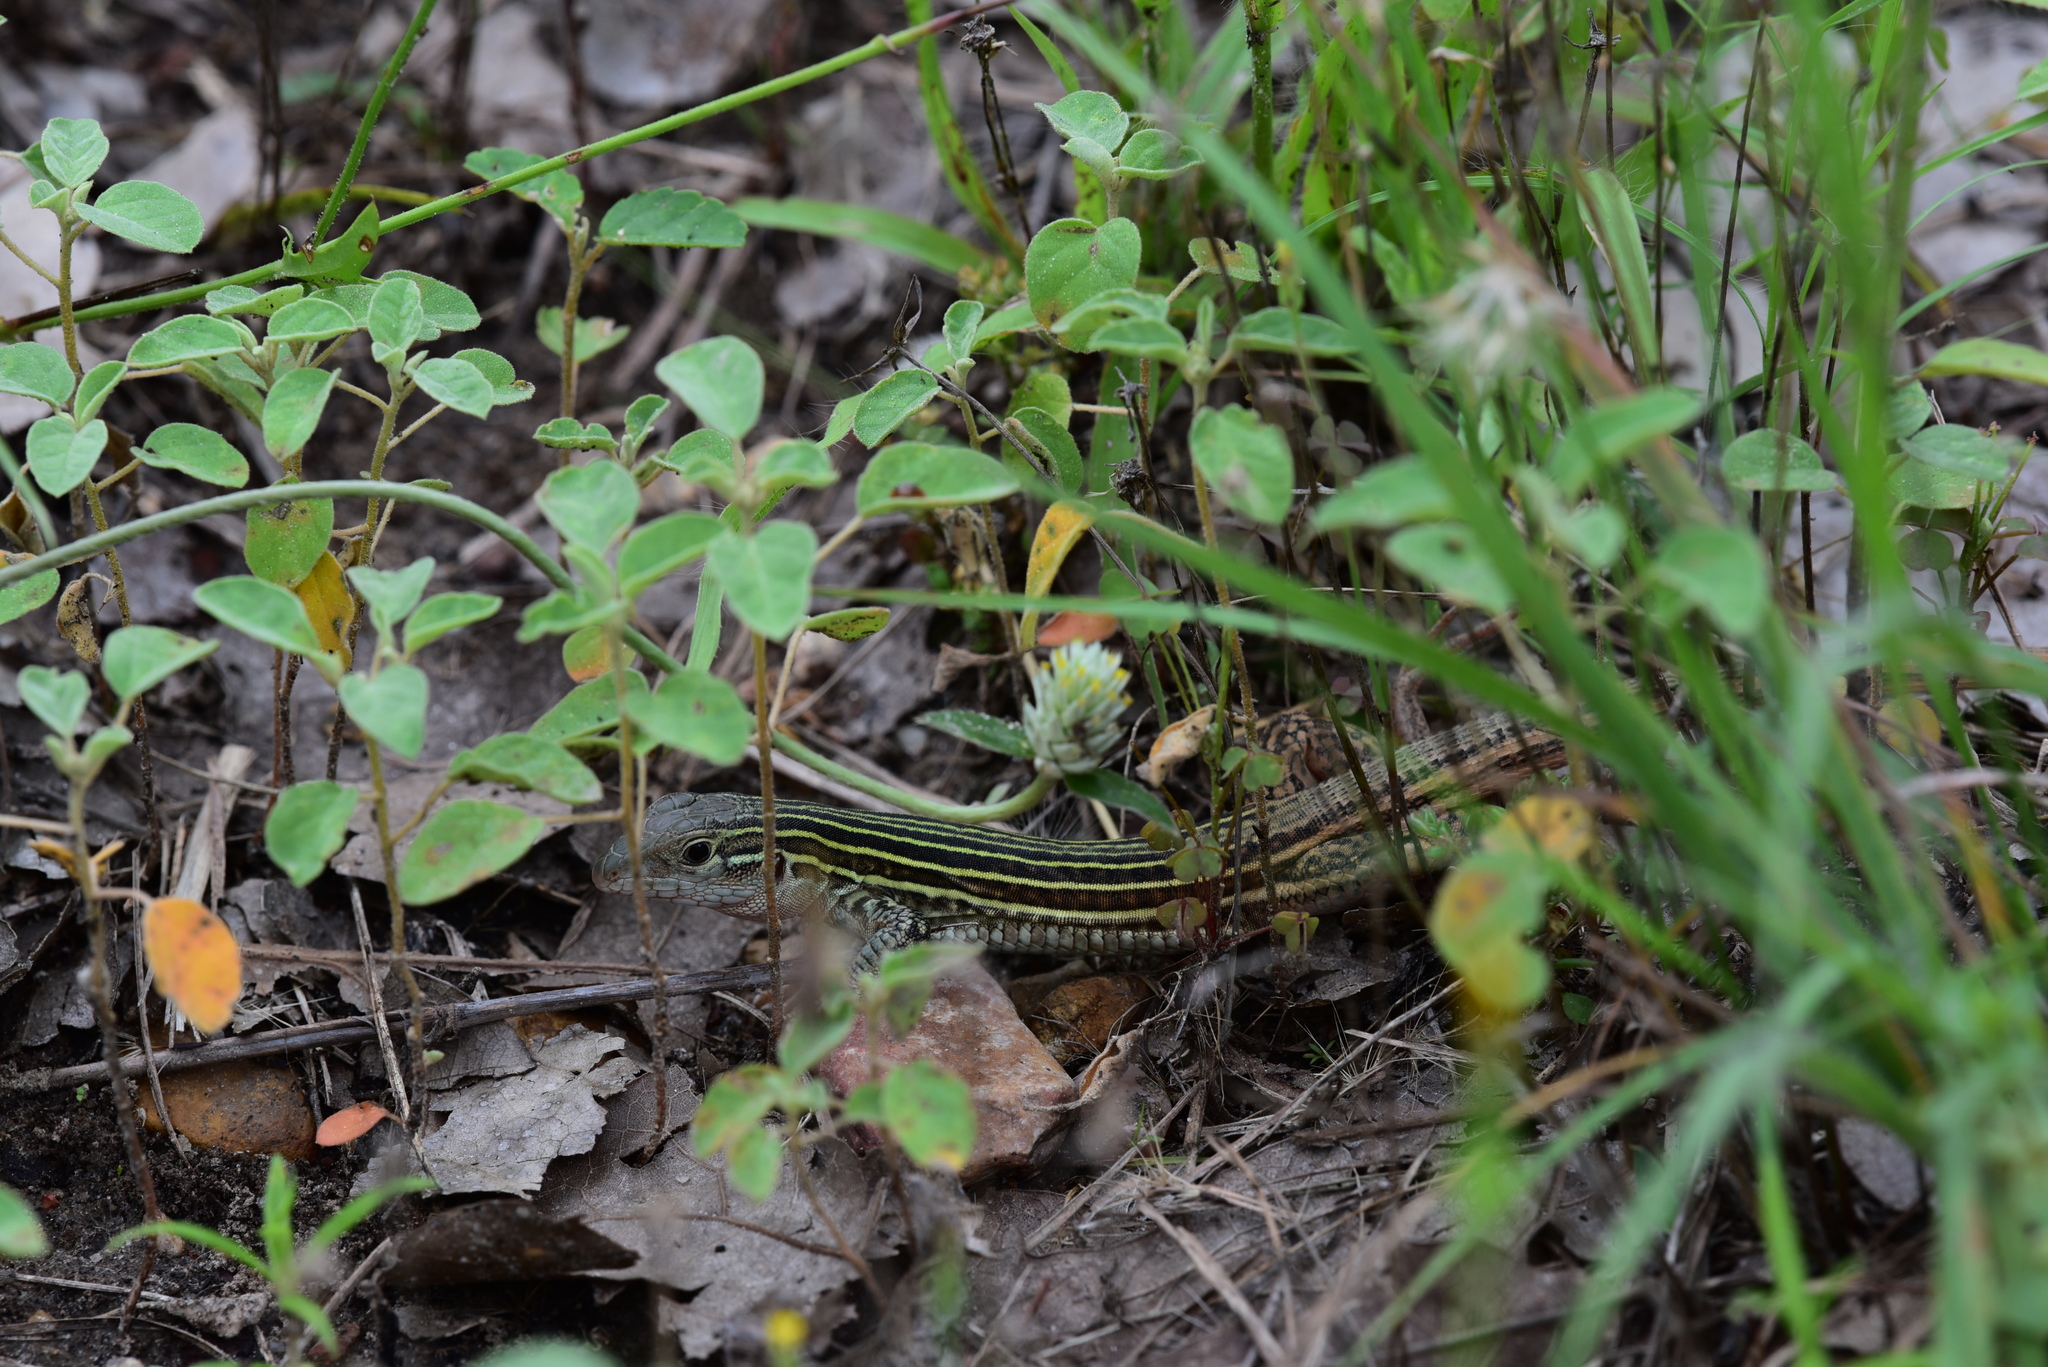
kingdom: Animalia
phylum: Chordata
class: Squamata
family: Teiidae
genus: Aspidoscelis
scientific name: Aspidoscelis gularis
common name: Eastern spotted whiptail
